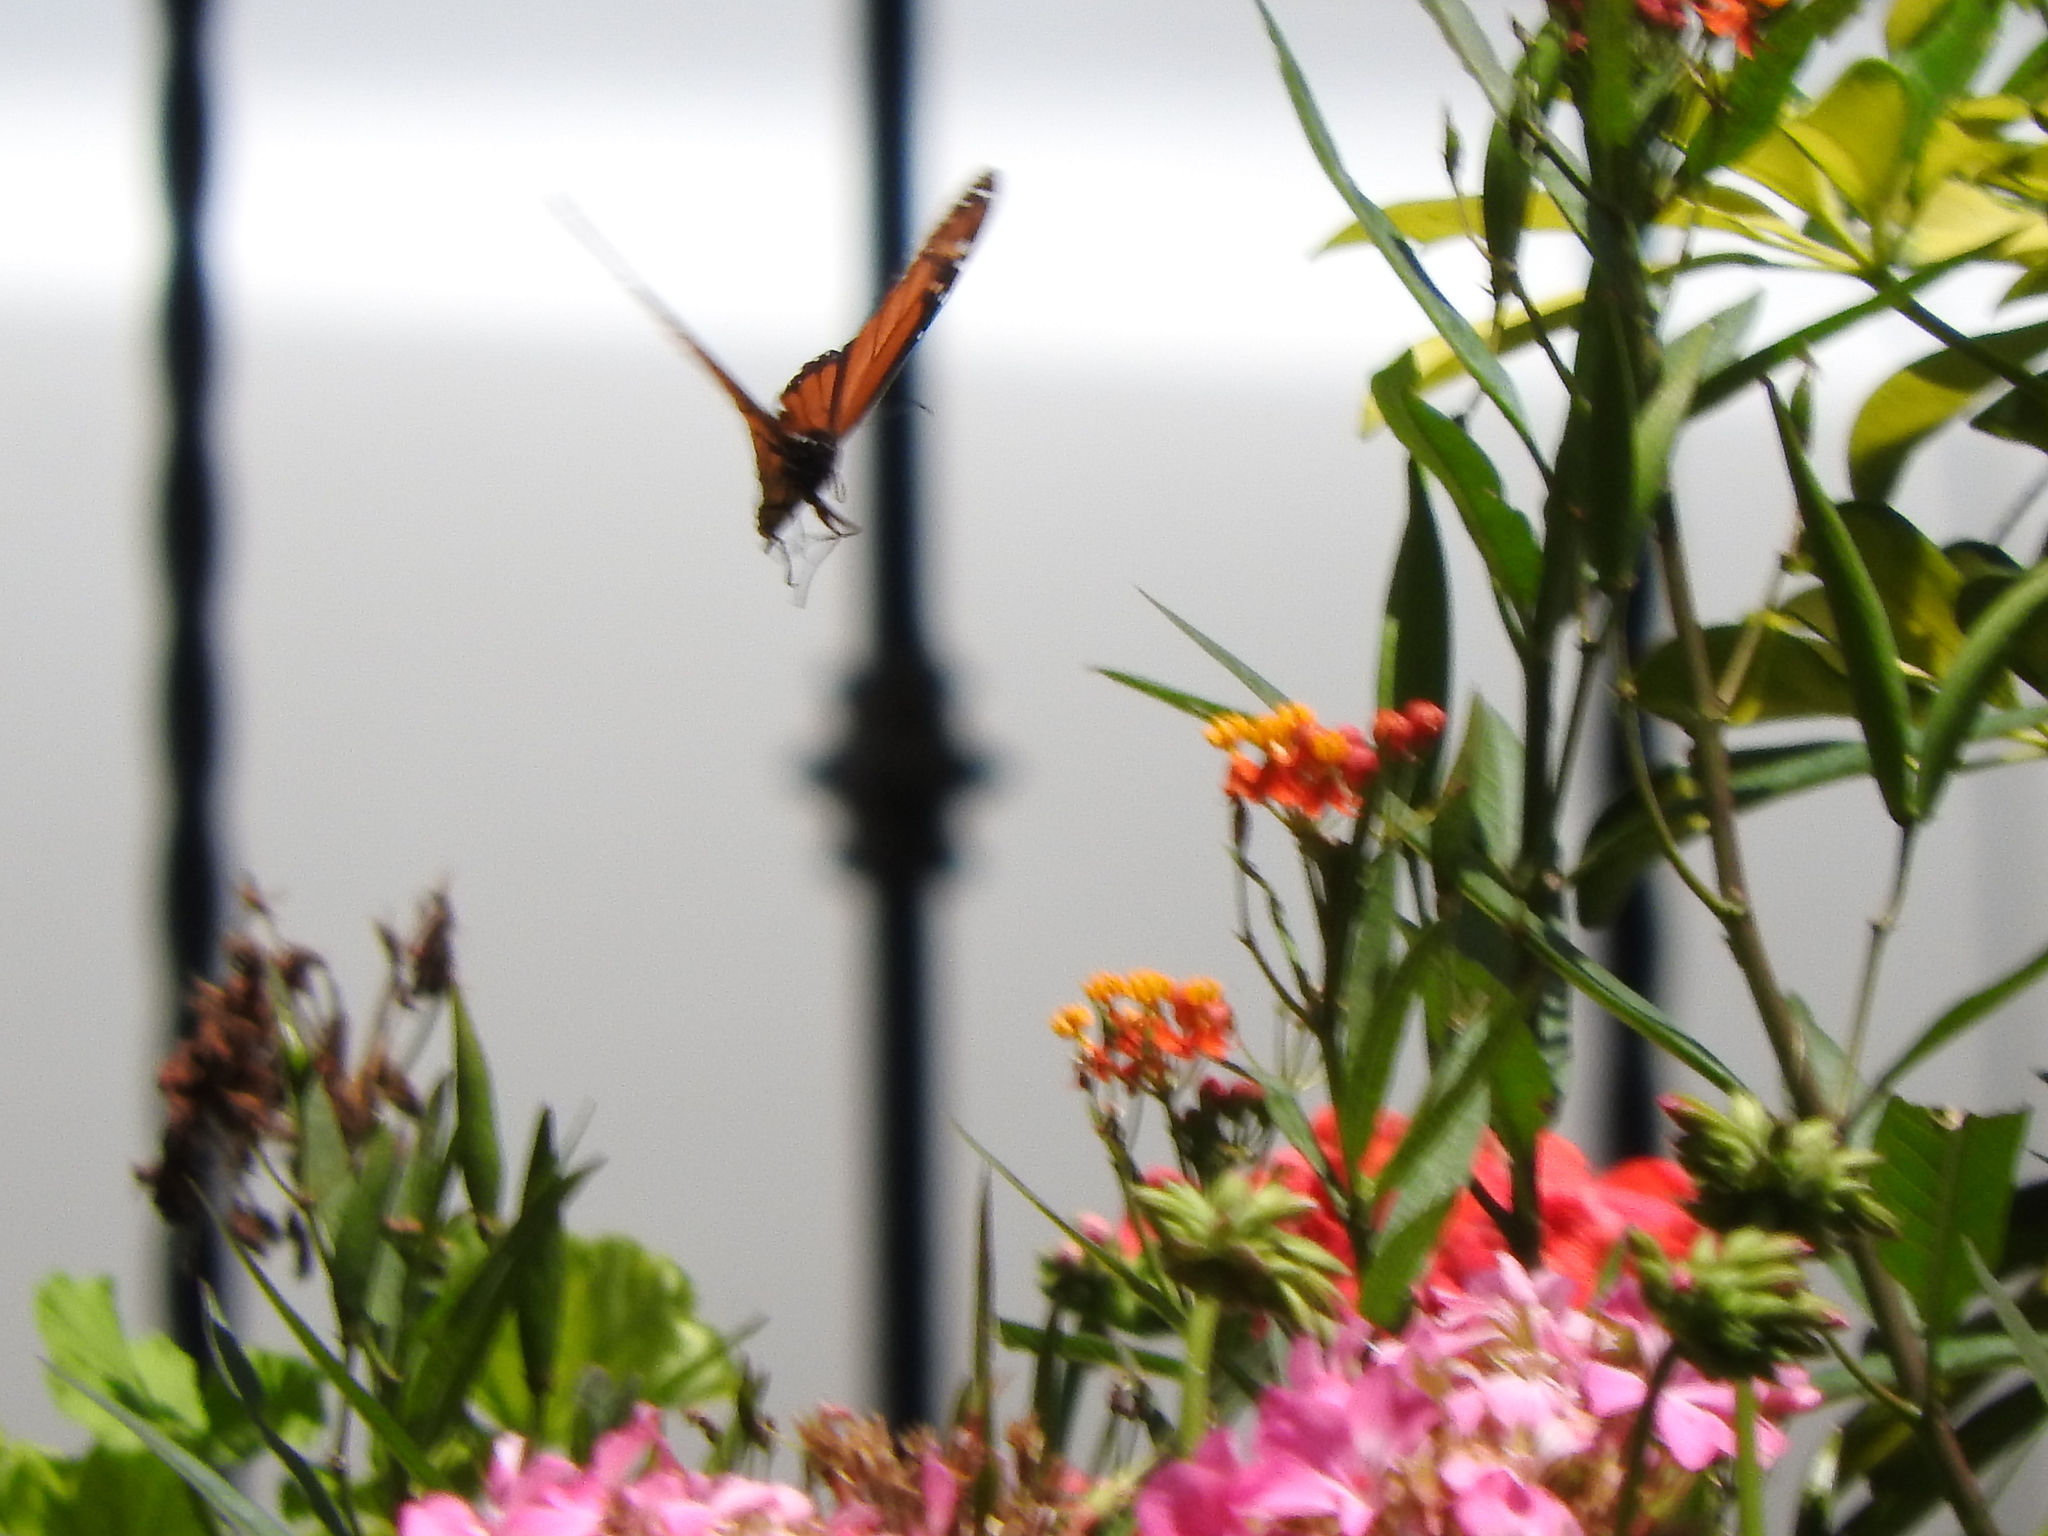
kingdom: Animalia
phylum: Arthropoda
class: Insecta
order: Lepidoptera
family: Nymphalidae
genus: Danaus
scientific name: Danaus plexippus
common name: Monarch
